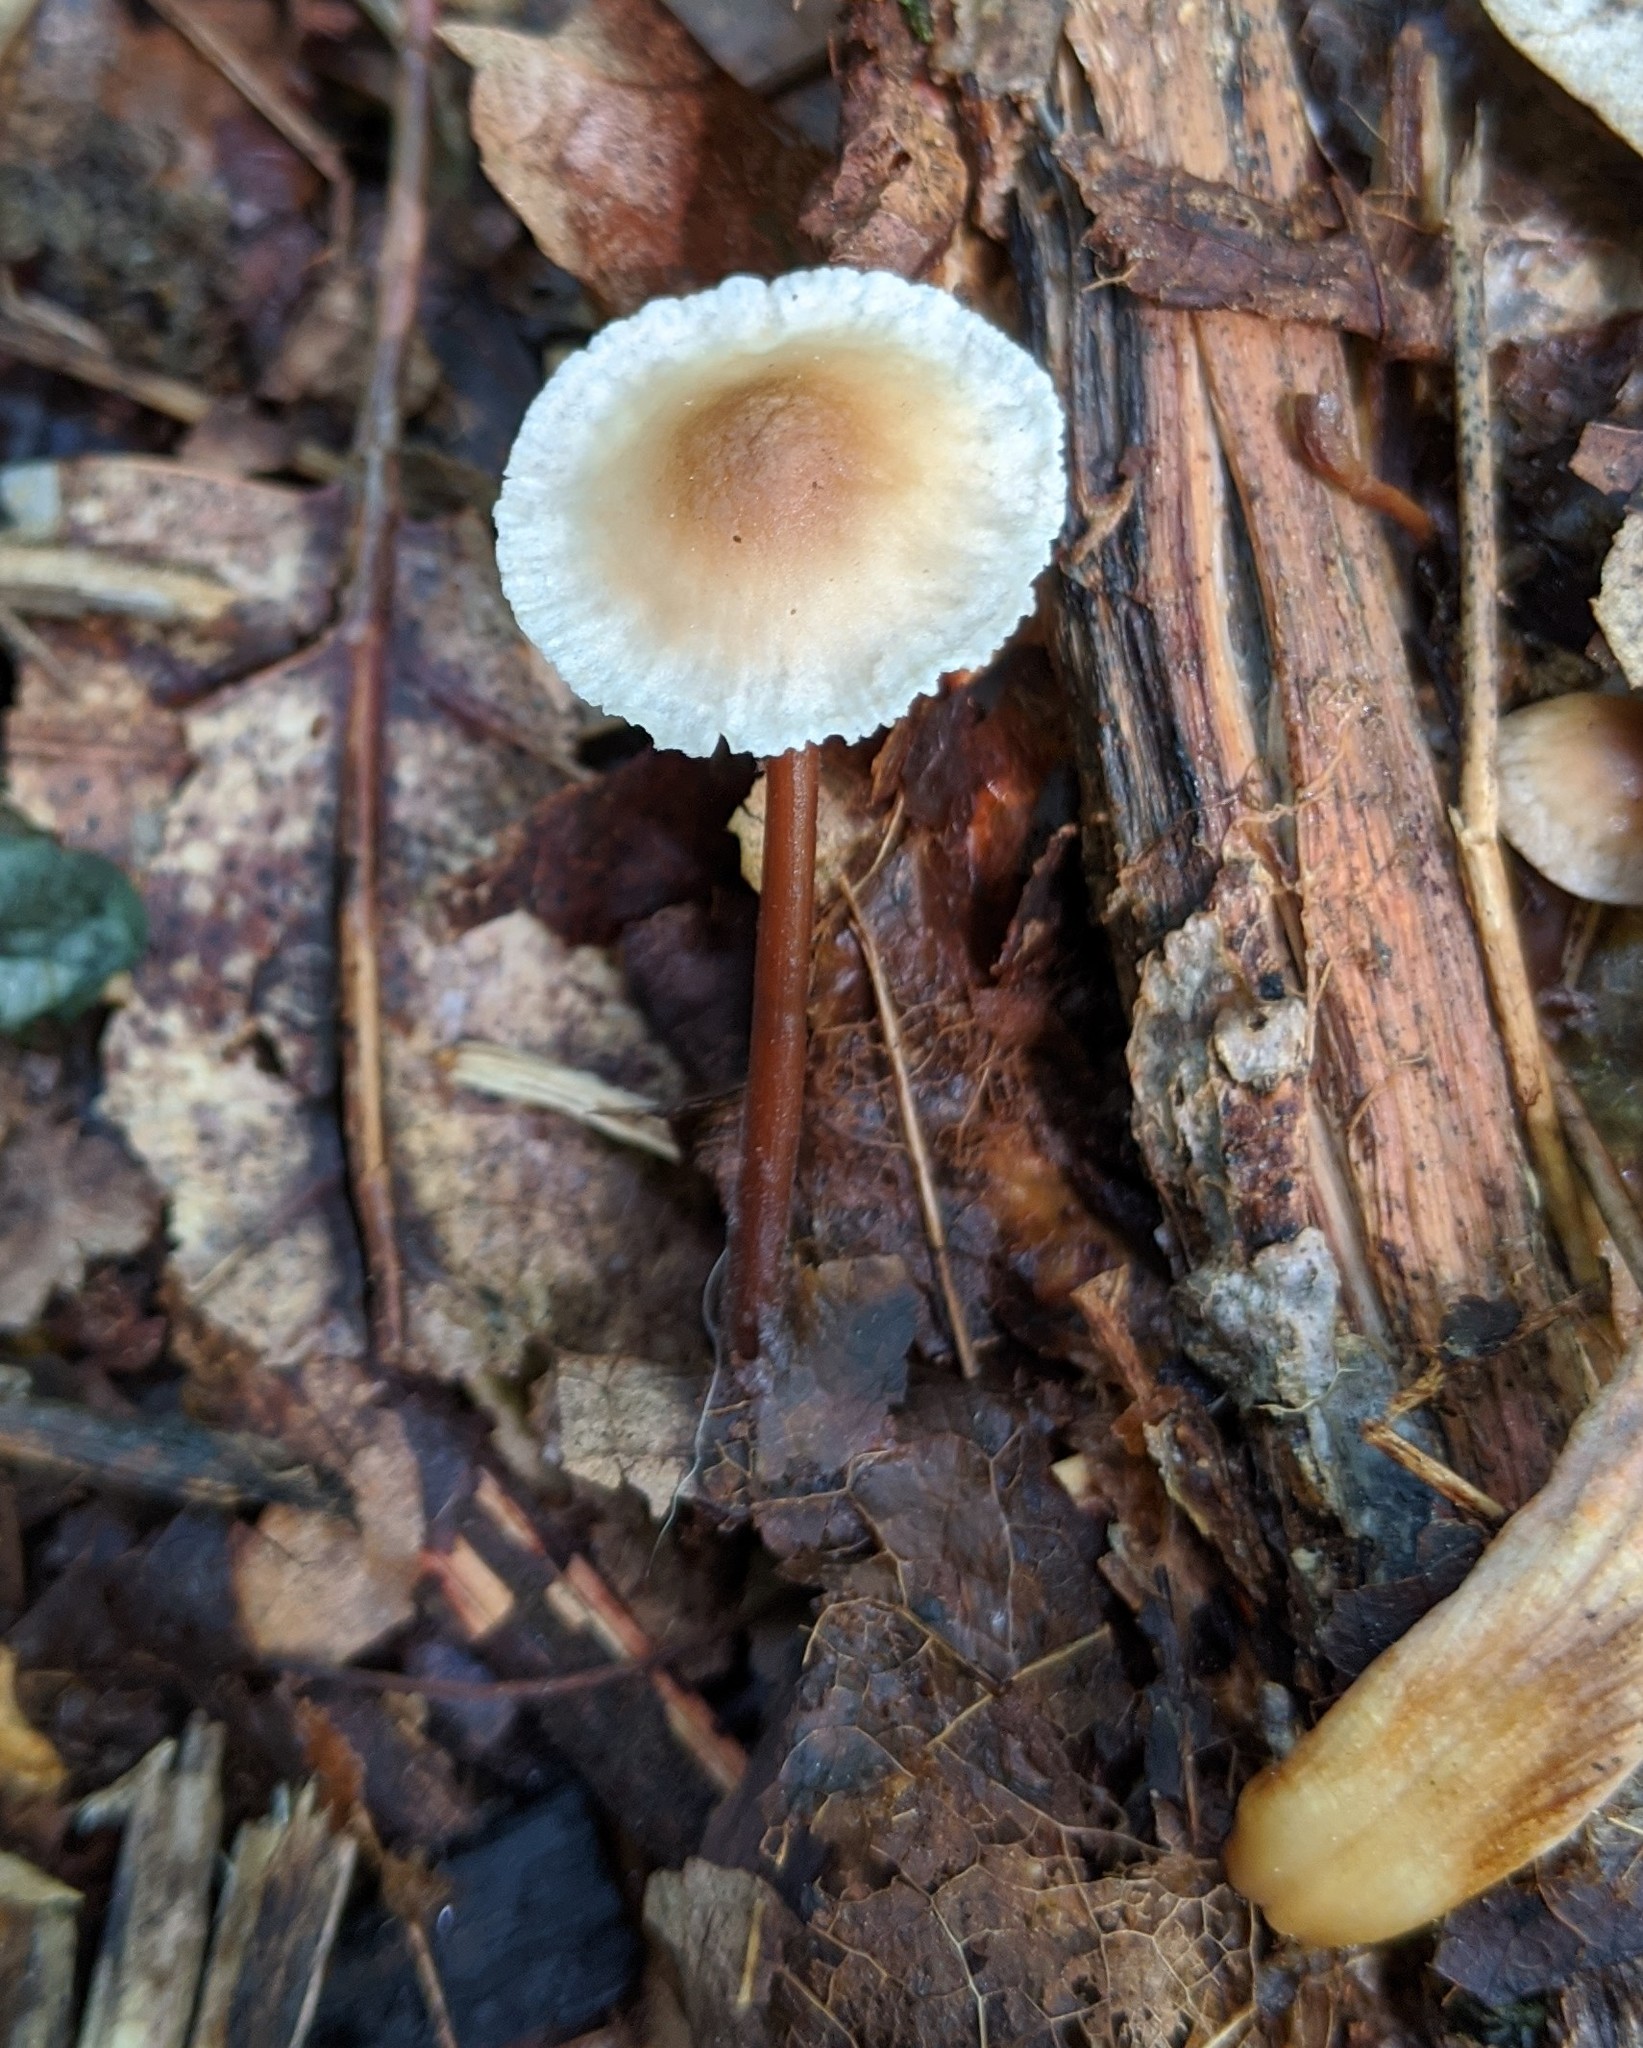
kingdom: Fungi
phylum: Basidiomycota
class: Agaricomycetes
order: Agaricales
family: Omphalotaceae
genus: Gymnopus
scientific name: Gymnopus semihirtipes
